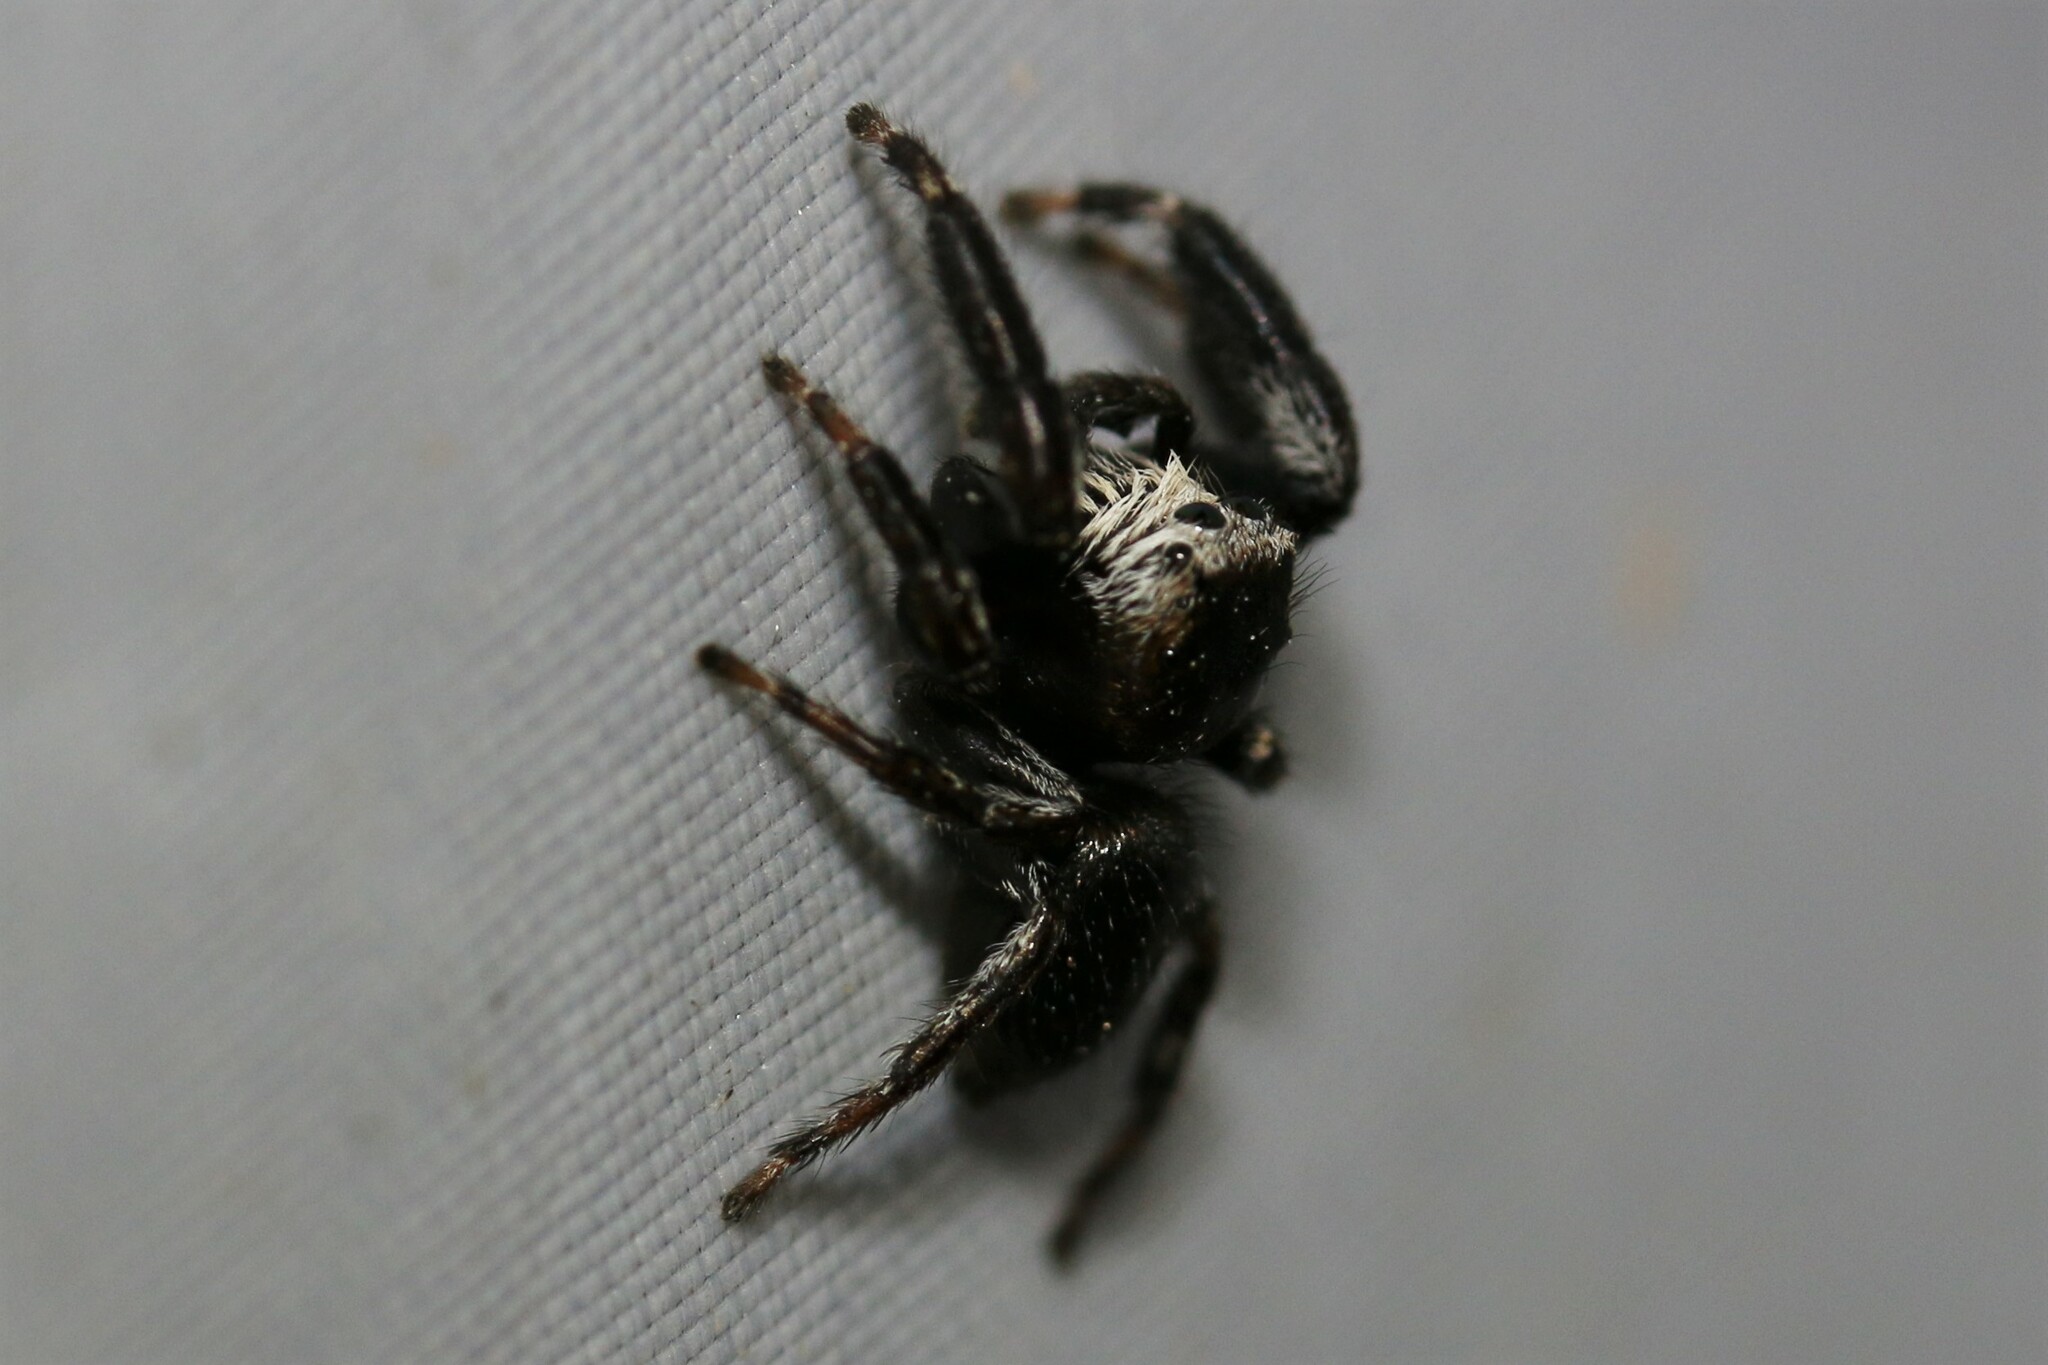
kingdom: Animalia
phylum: Arthropoda
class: Arachnida
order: Araneae
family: Salticidae
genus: Evarcha
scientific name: Evarcha arcuata
